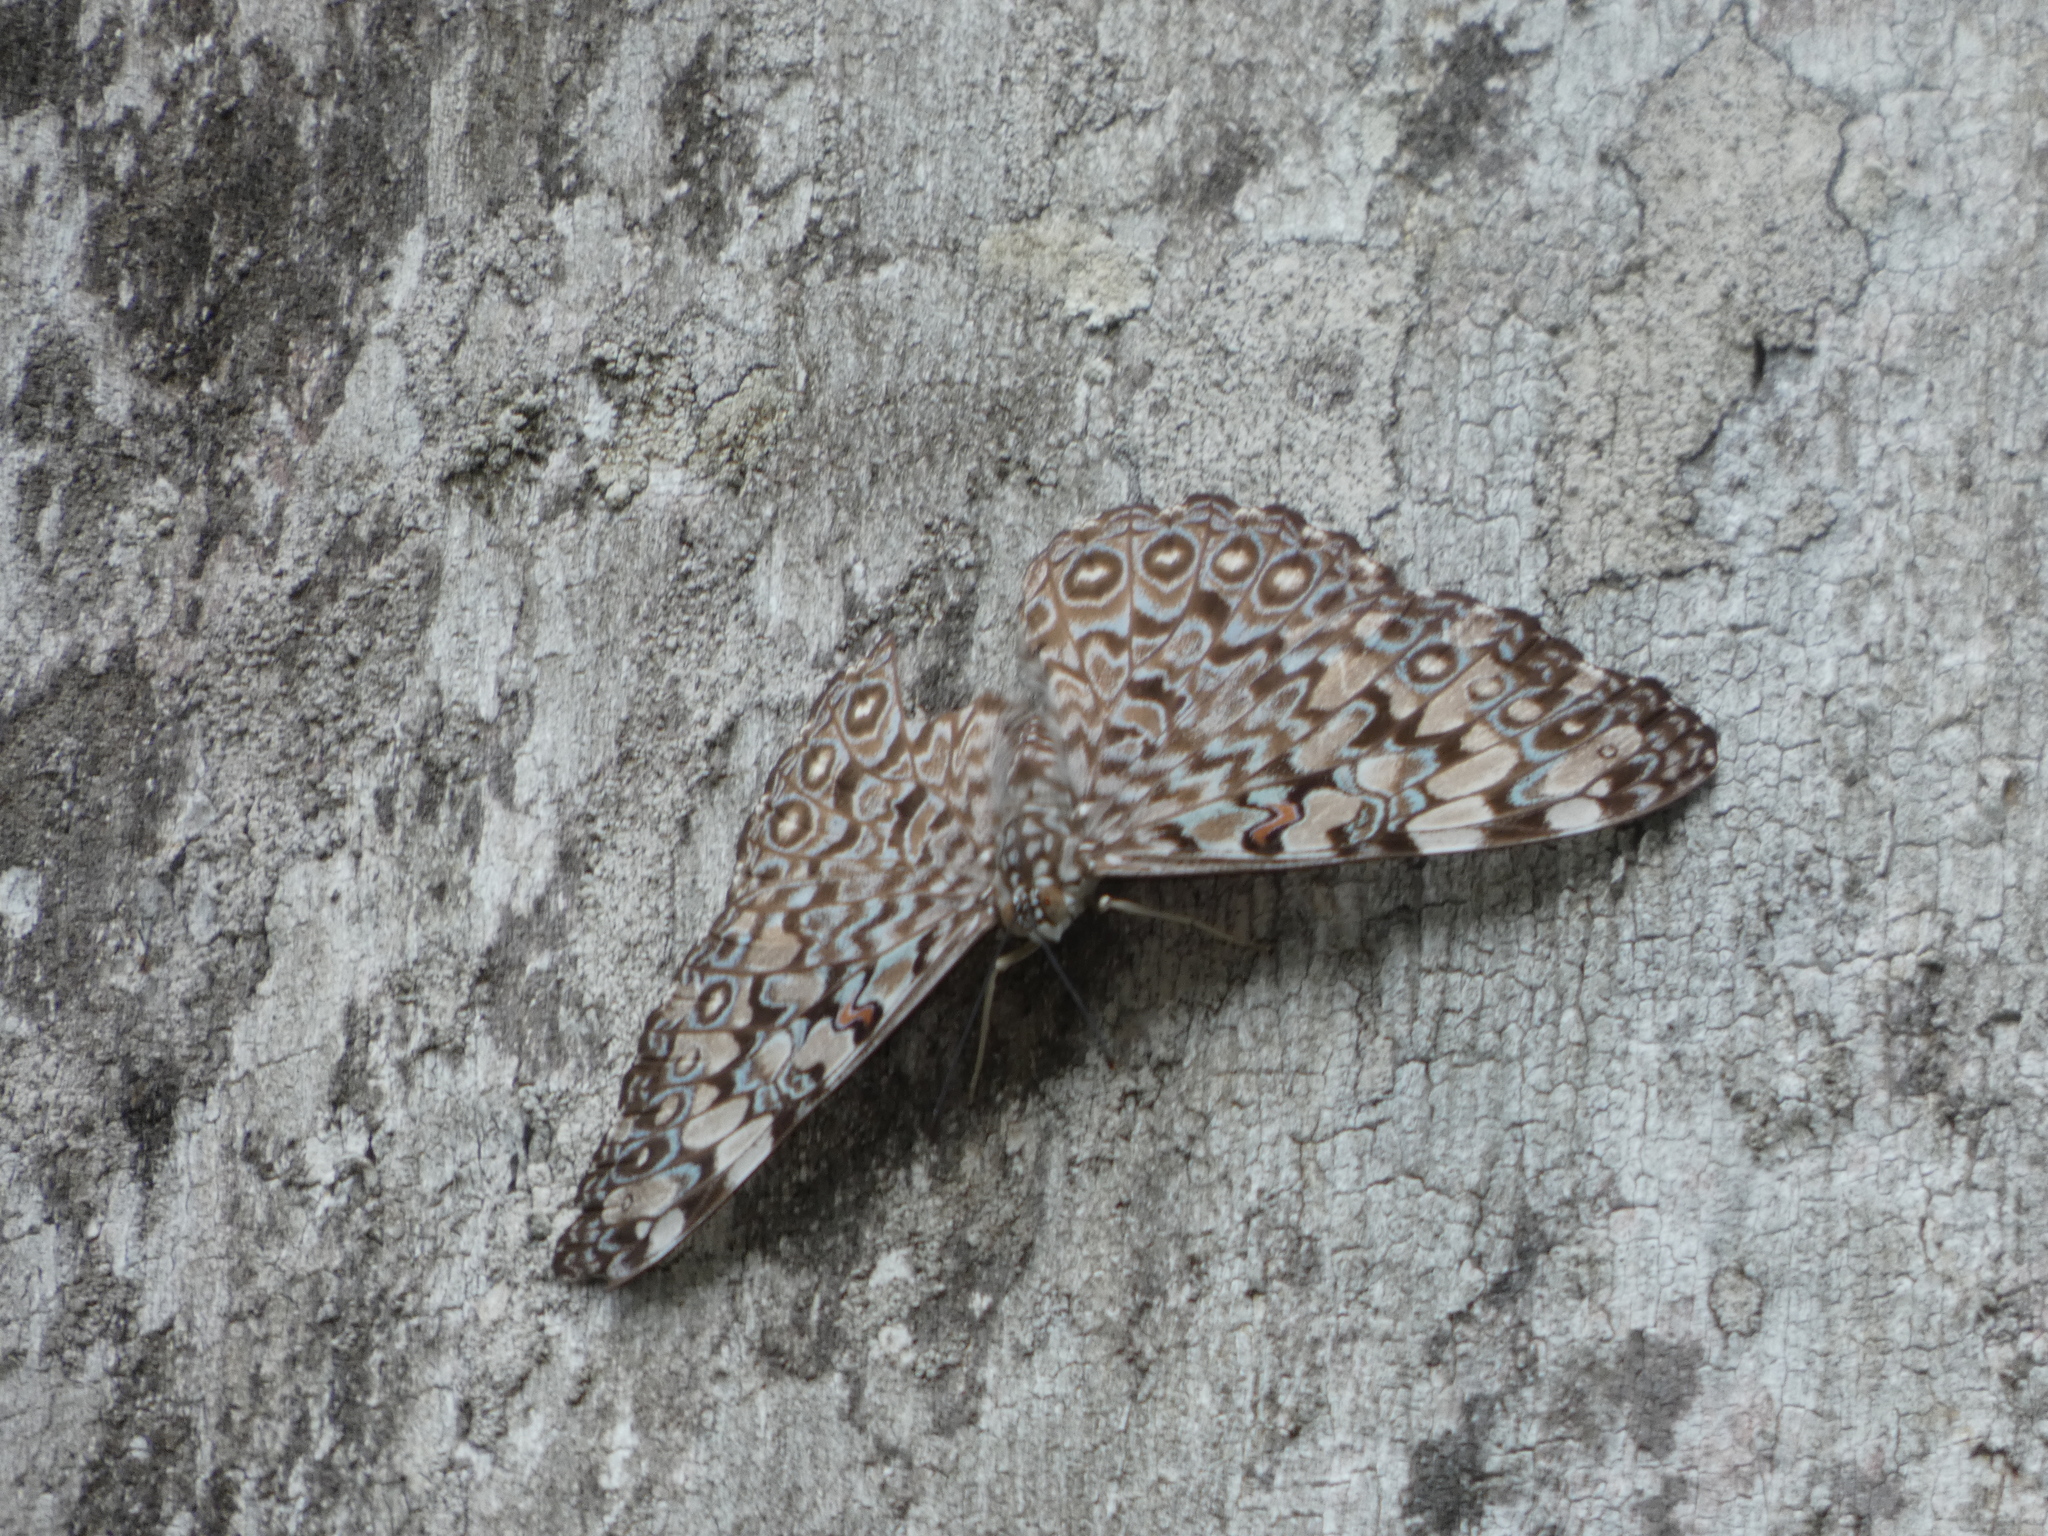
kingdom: Animalia
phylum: Arthropoda
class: Insecta
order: Lepidoptera
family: Nymphalidae
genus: Hamadryas
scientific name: Hamadryas feronia
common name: Variable cracker
